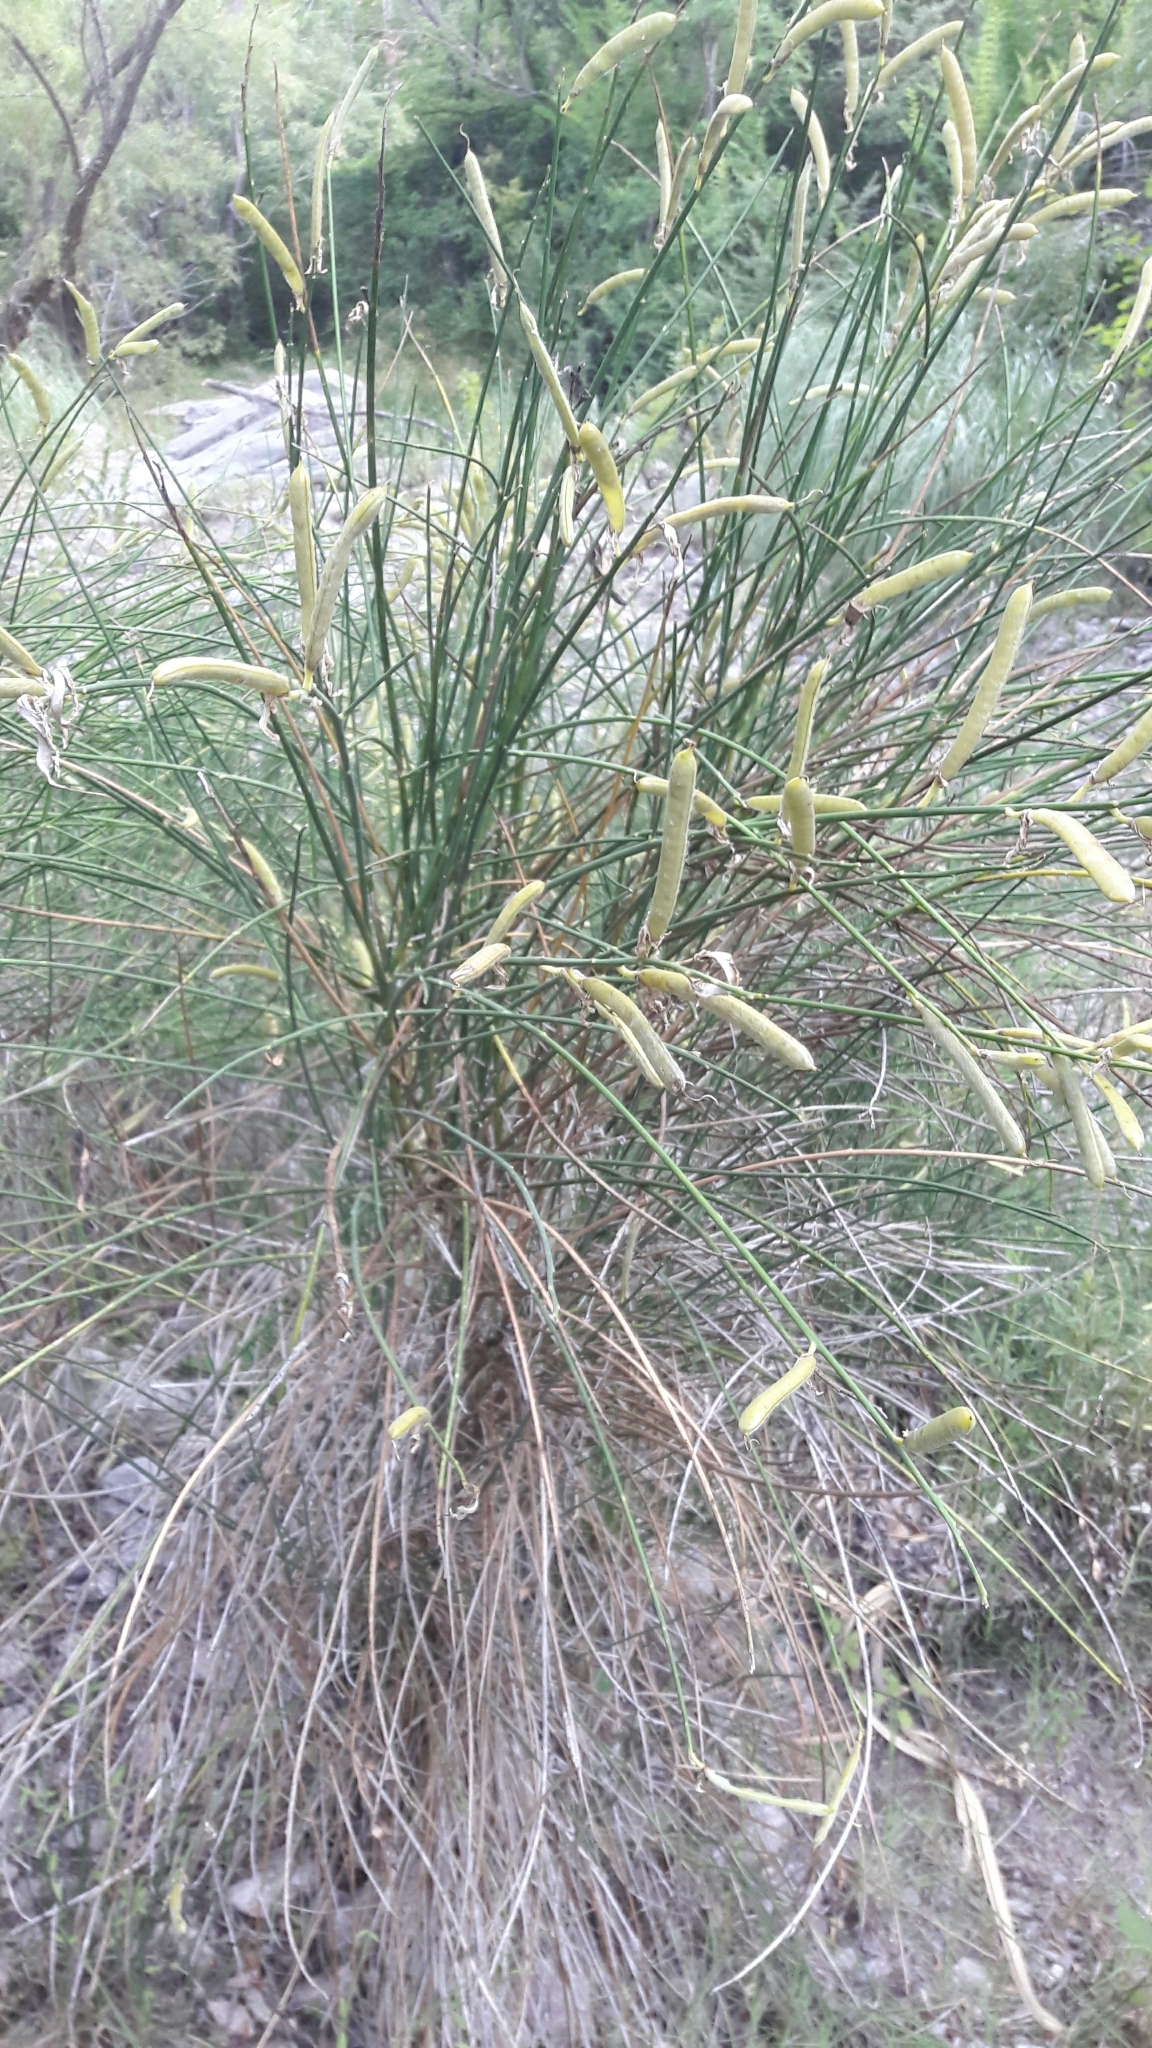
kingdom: Plantae
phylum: Tracheophyta
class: Magnoliopsida
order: Fabales
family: Fabaceae
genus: Spartium
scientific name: Spartium junceum
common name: Spanish broom
